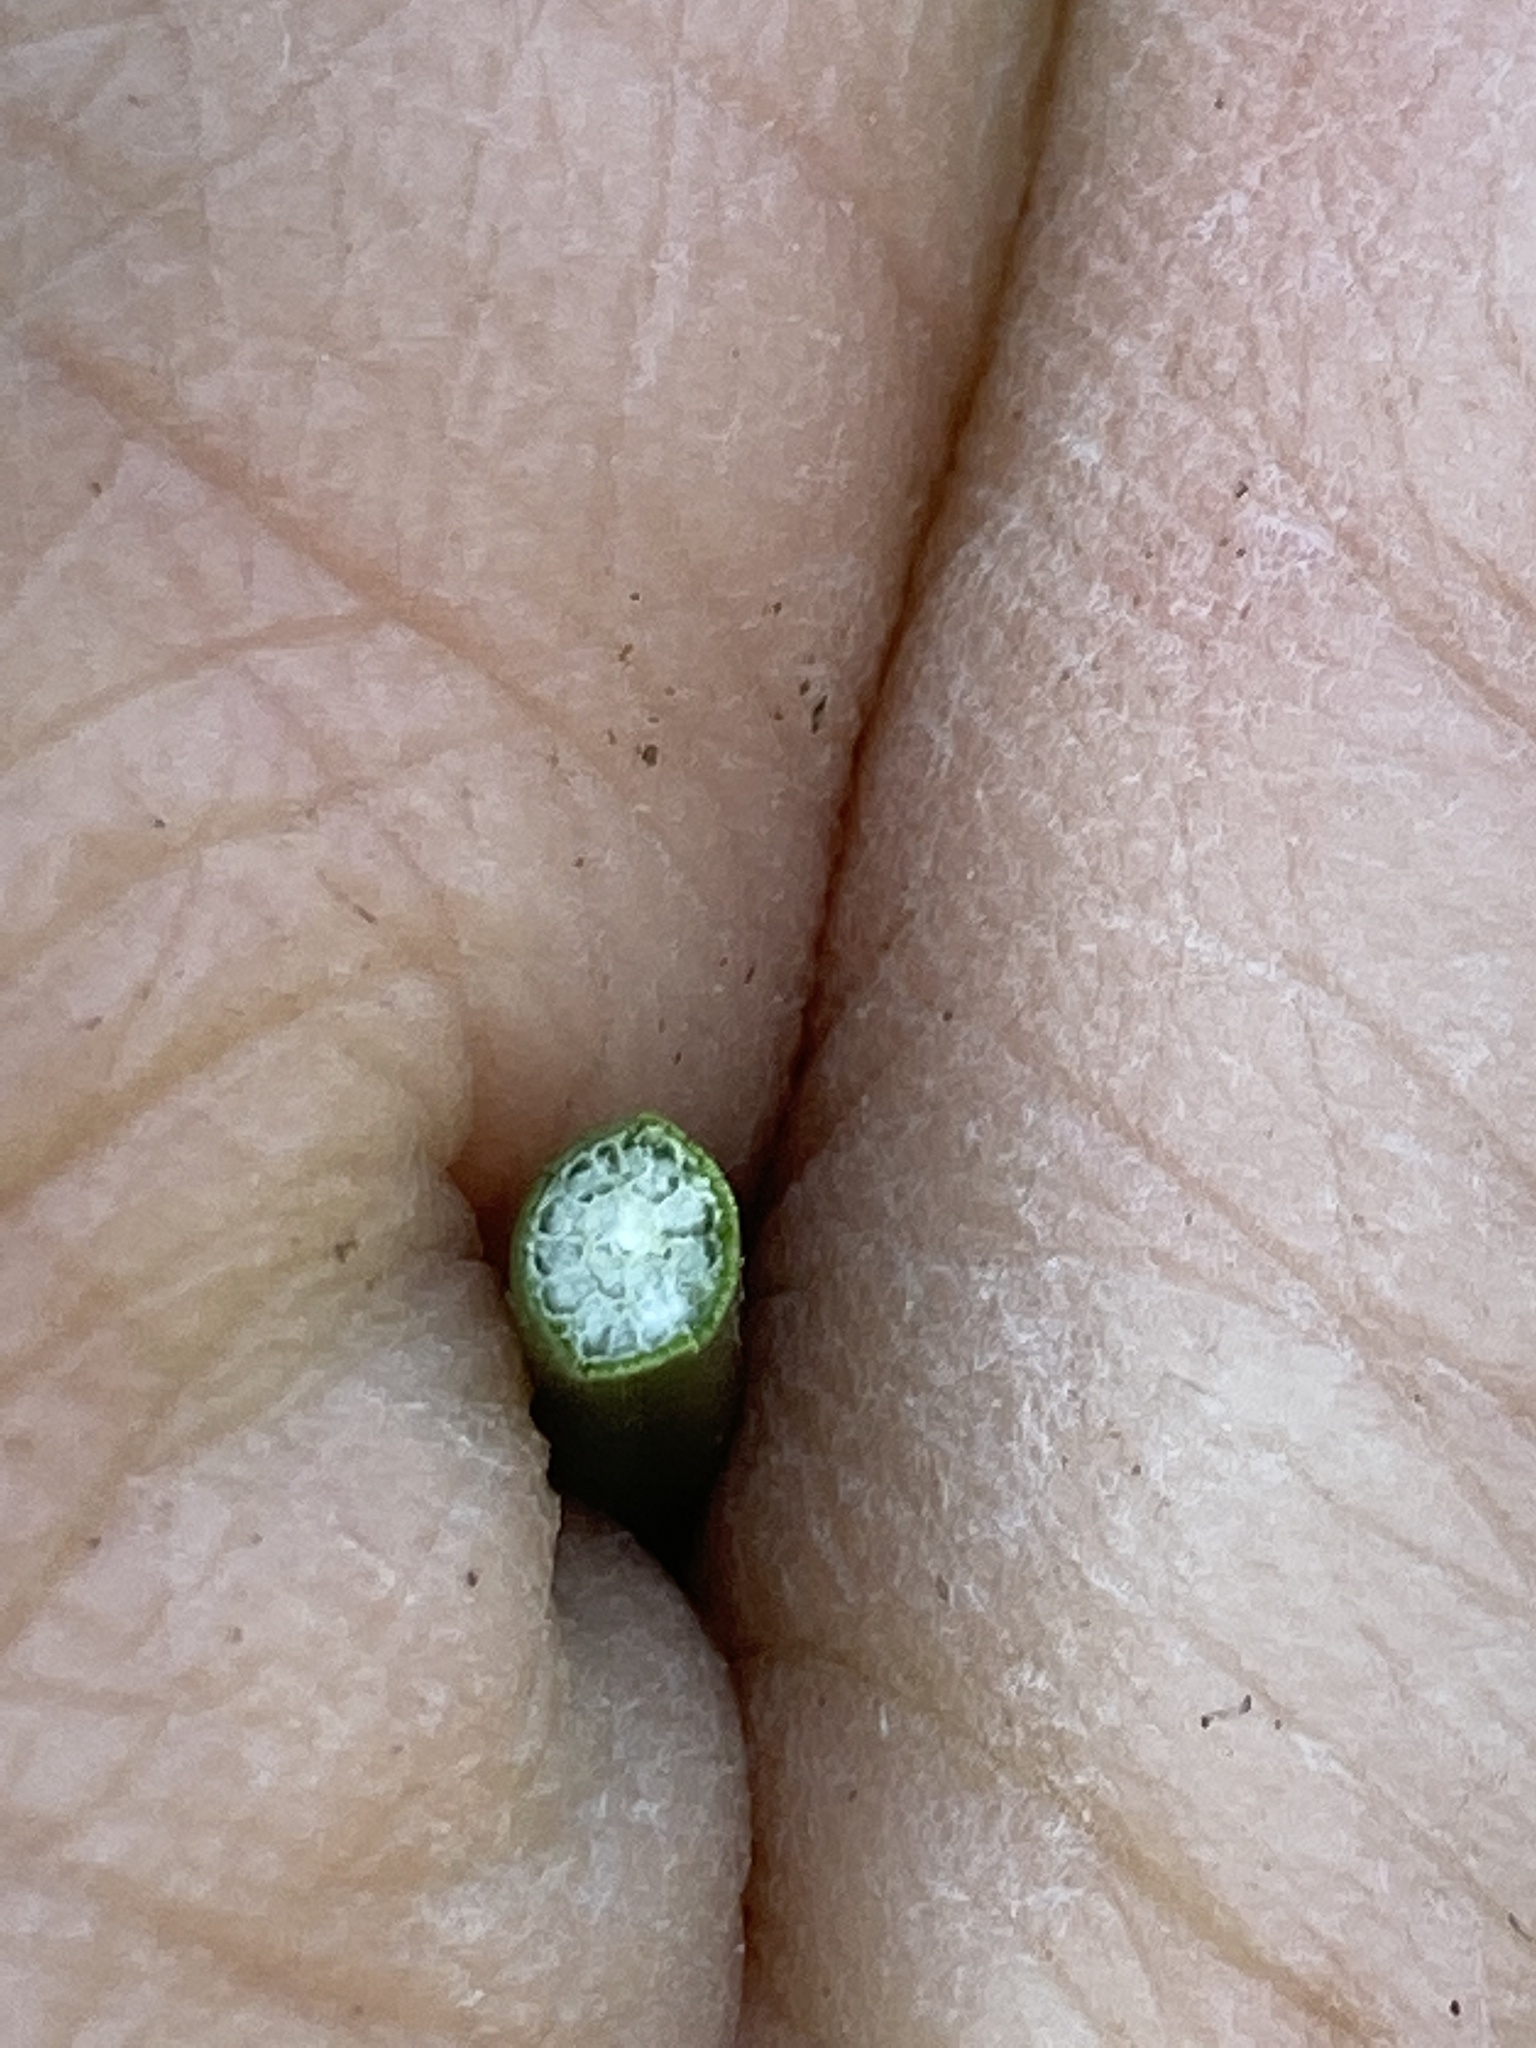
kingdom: Plantae
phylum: Tracheophyta
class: Liliopsida
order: Poales
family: Cyperaceae
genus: Schoenoplectus
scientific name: Schoenoplectus acutus
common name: Hardstem bulrush
